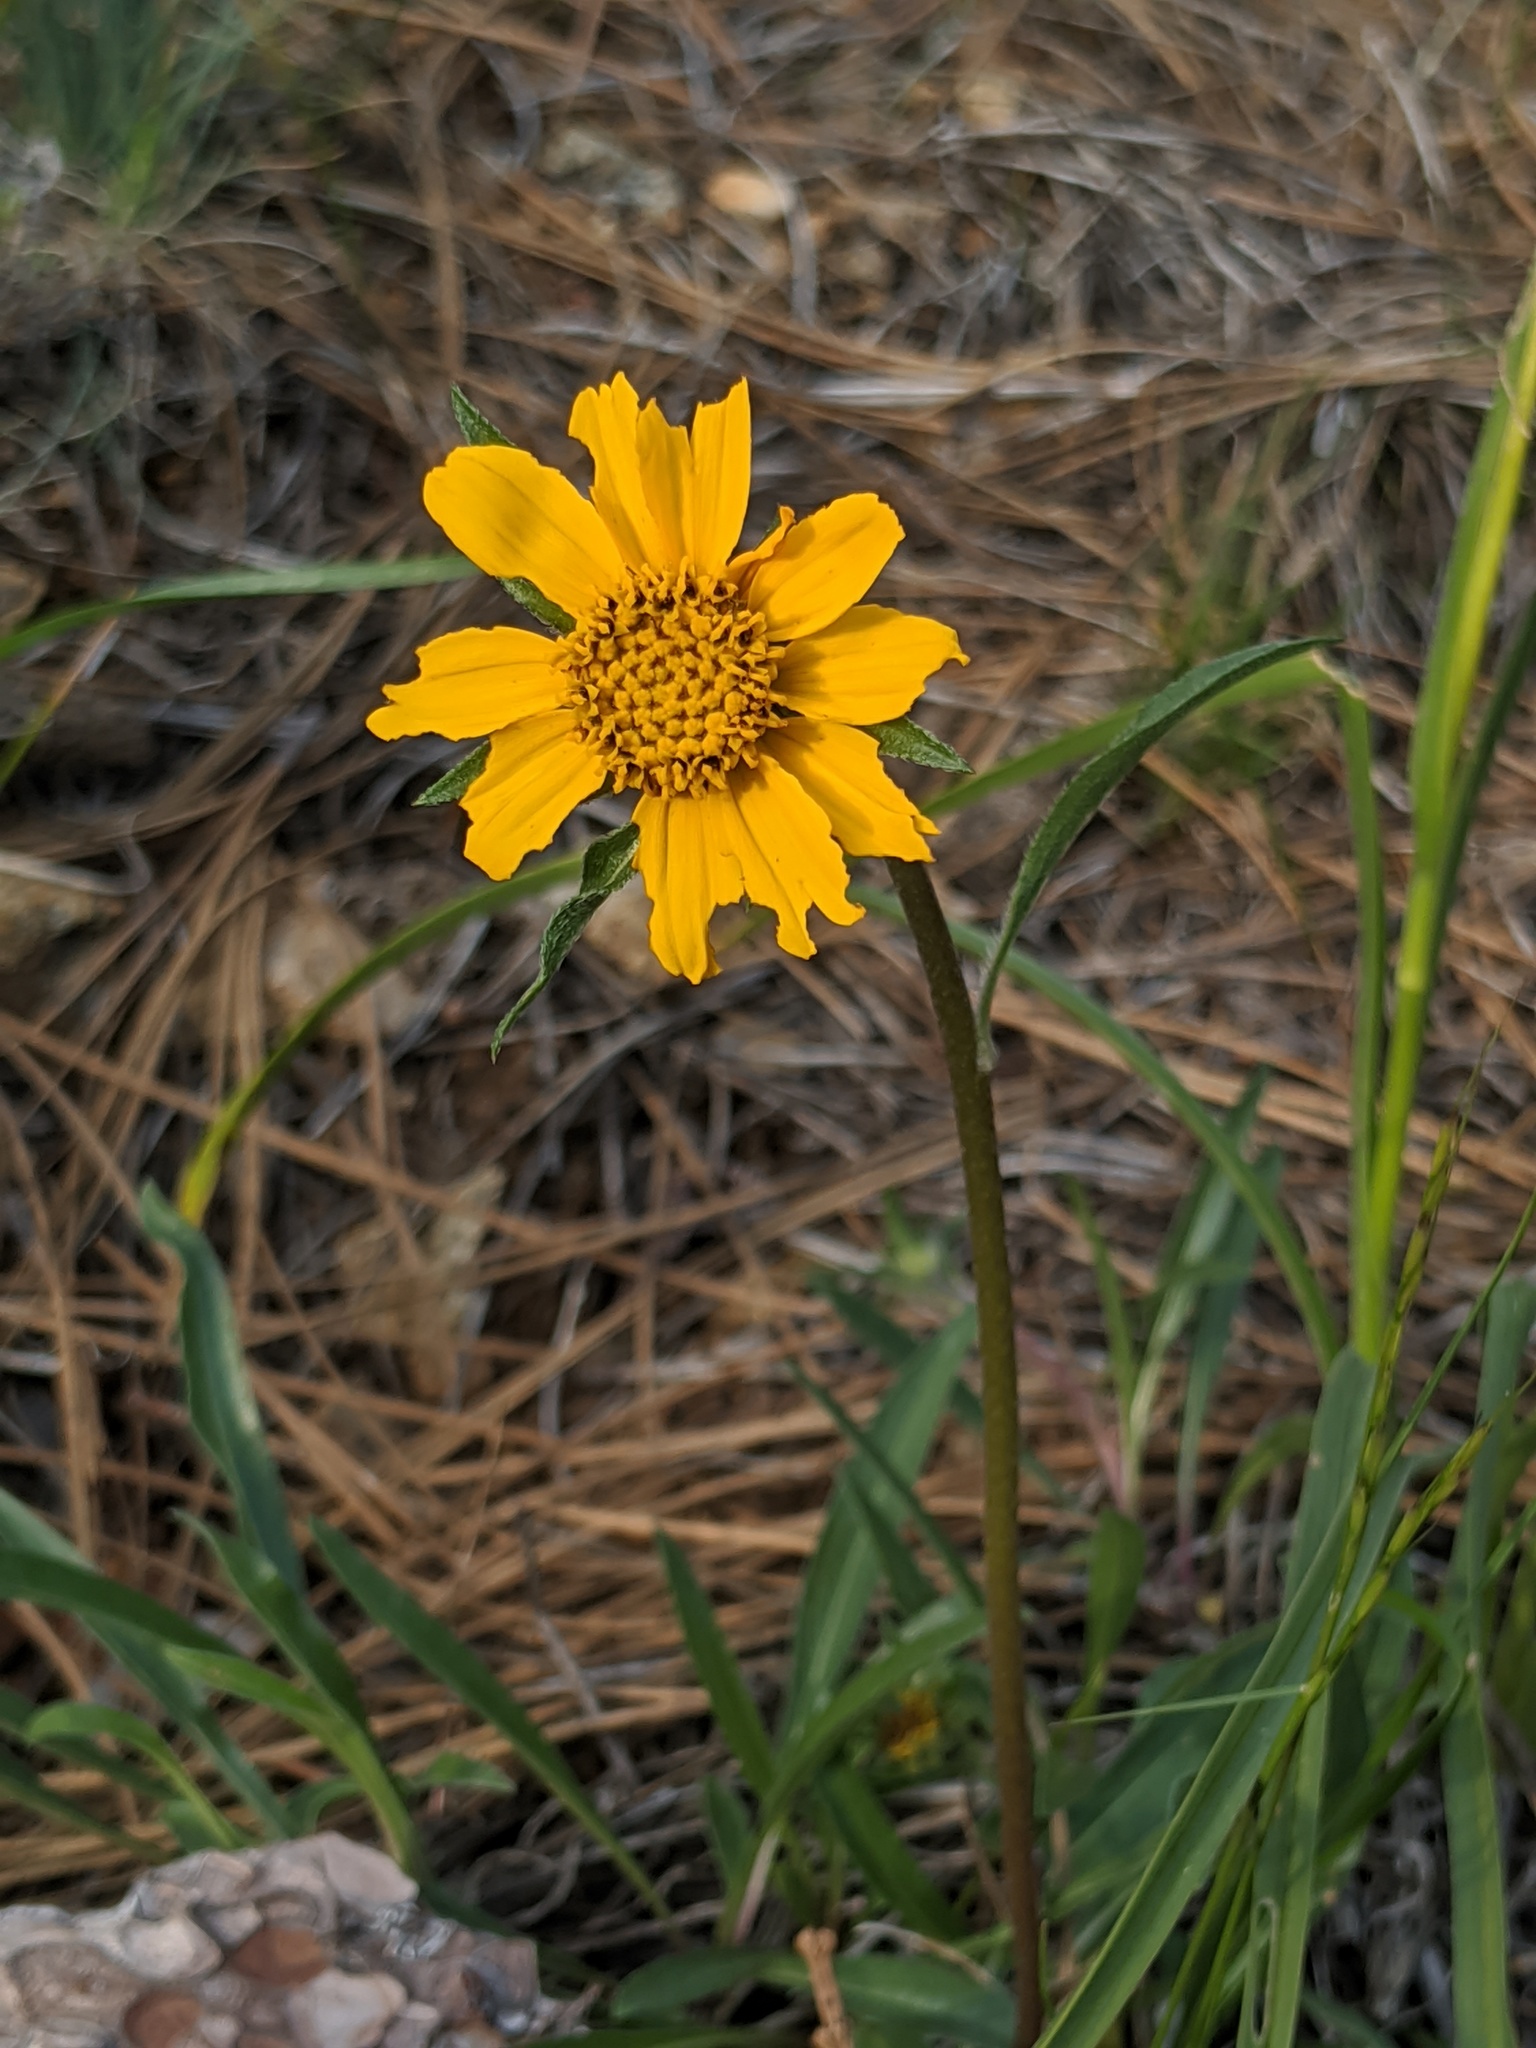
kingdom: Plantae
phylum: Tracheophyta
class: Magnoliopsida
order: Asterales
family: Asteraceae
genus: Helianthella
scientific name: Helianthella californica
